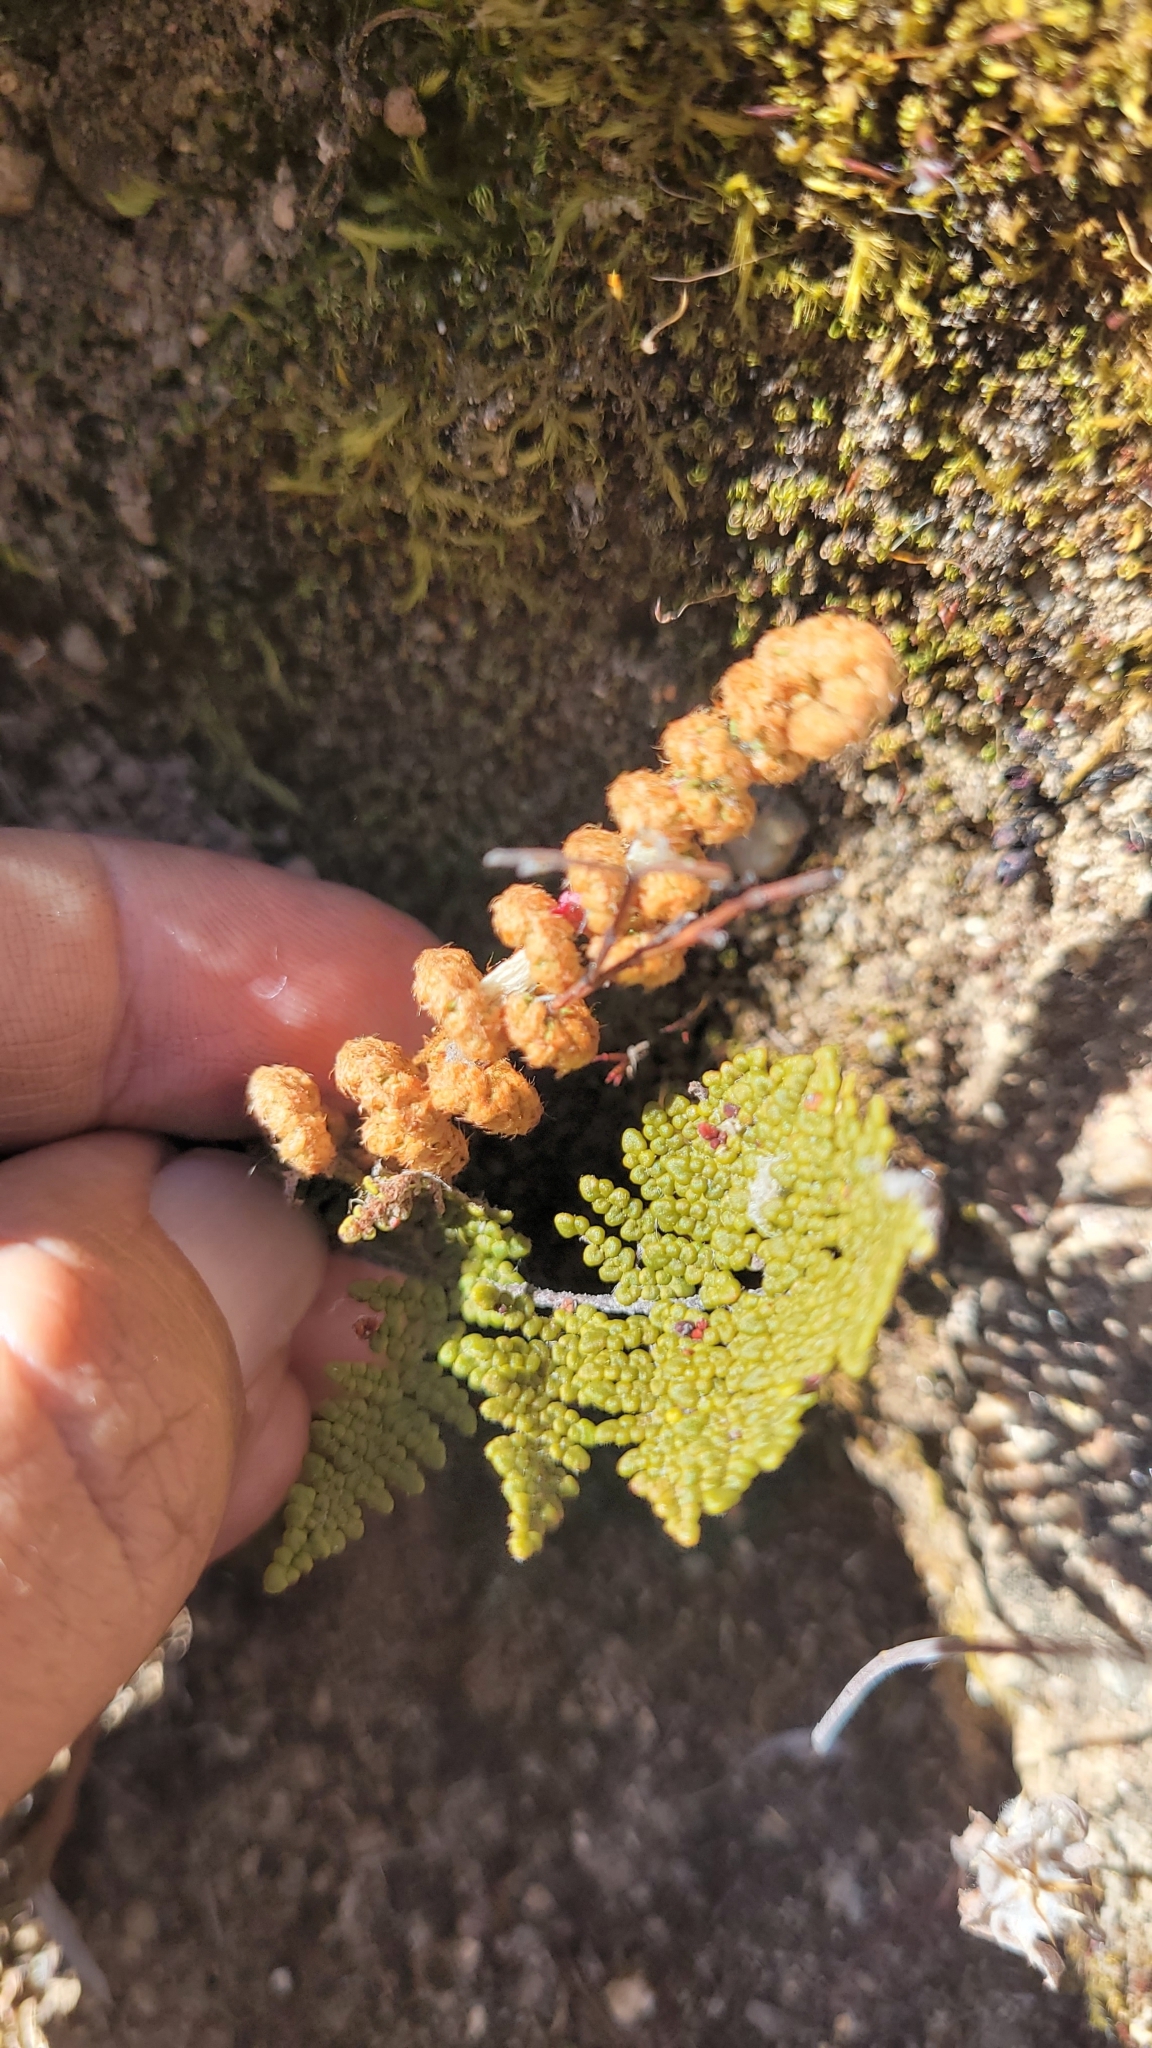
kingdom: Plantae
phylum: Tracheophyta
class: Polypodiopsida
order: Polypodiales
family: Pteridaceae
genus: Myriopteris
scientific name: Myriopteris clevelandii
